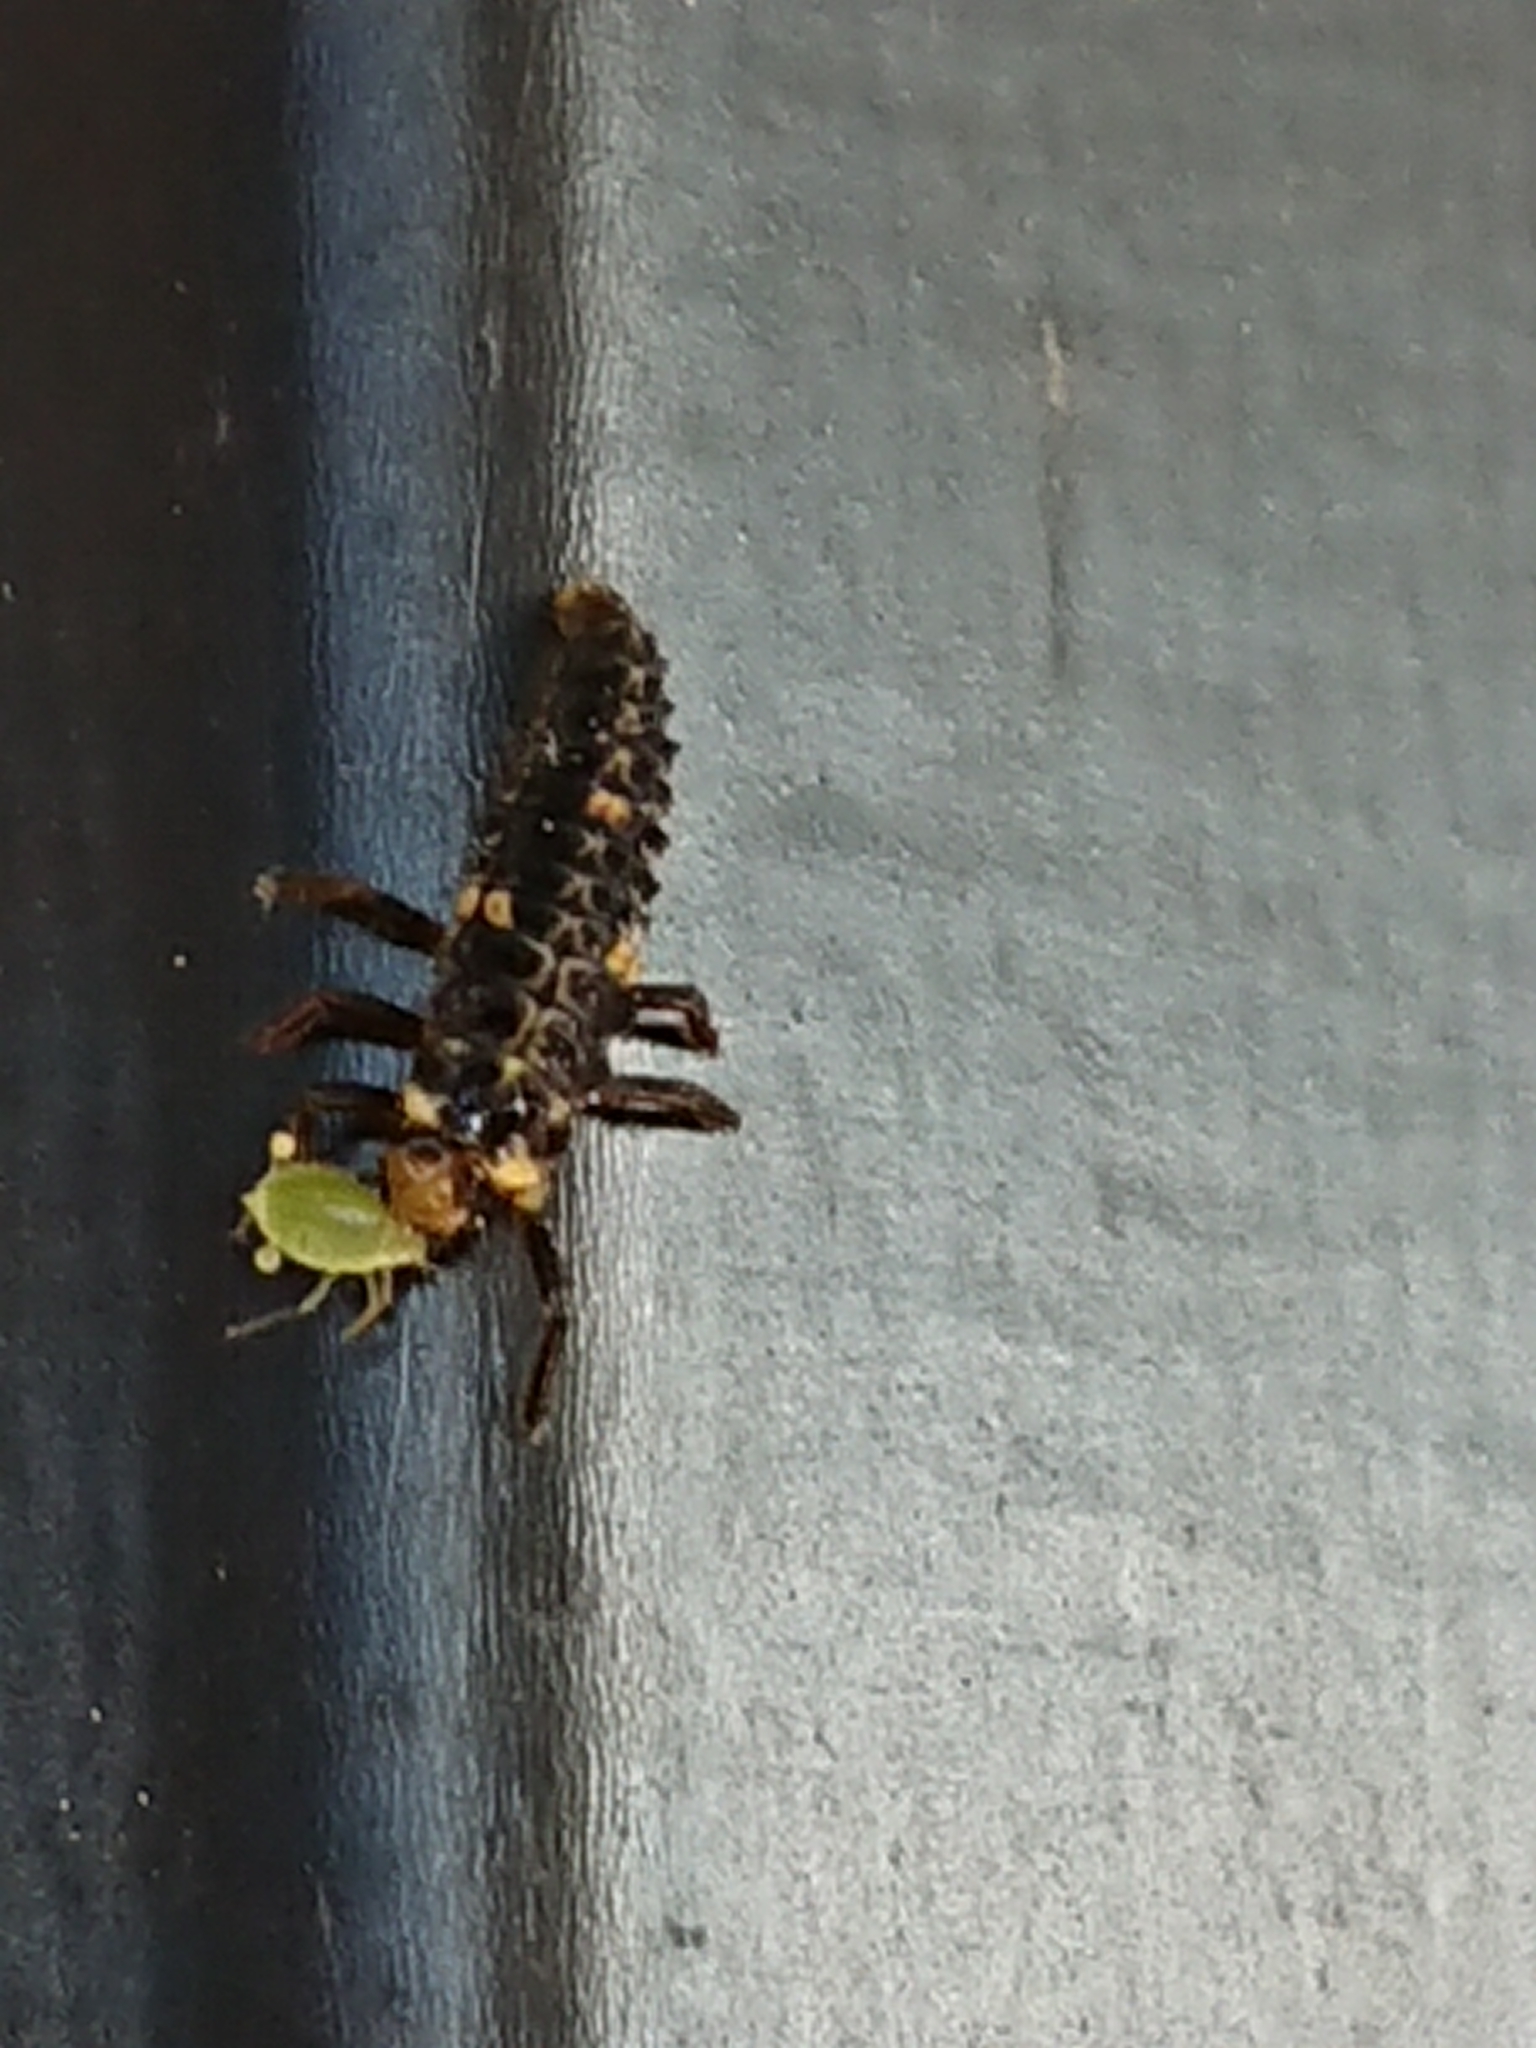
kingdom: Animalia
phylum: Arthropoda
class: Insecta
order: Coleoptera
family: Coccinellidae
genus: Adalia
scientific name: Adalia bipunctata
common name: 2-spot ladybird
